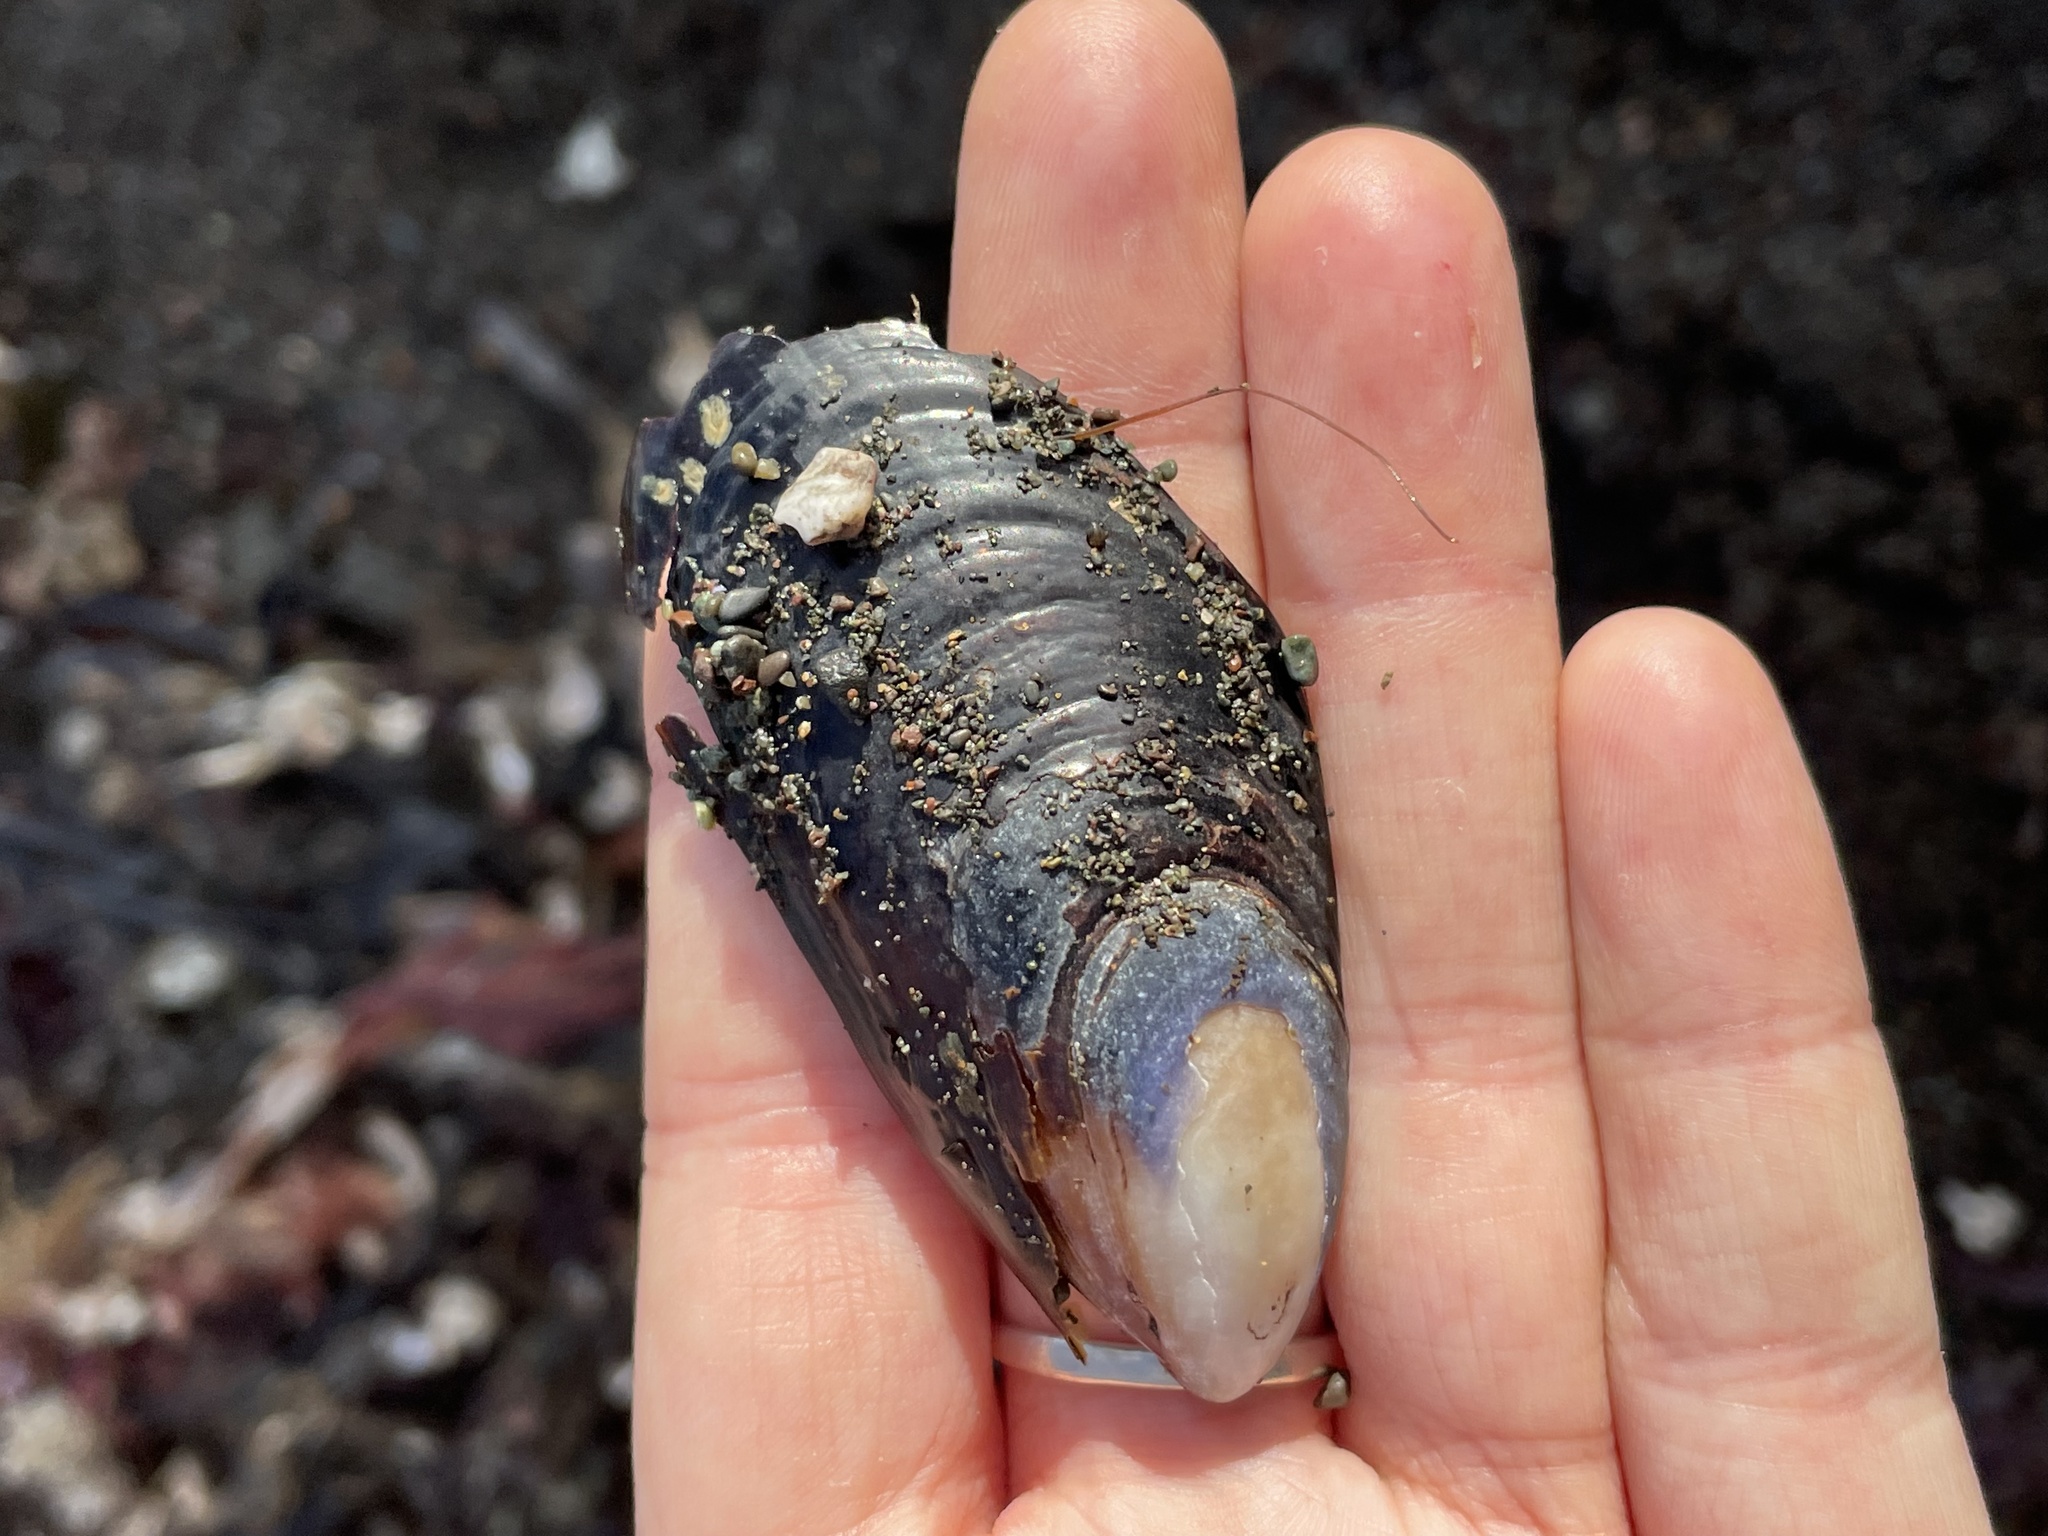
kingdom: Animalia
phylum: Mollusca
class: Bivalvia
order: Mytilida
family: Mytilidae
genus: Mytilus
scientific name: Mytilus californianus
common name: California mussel
